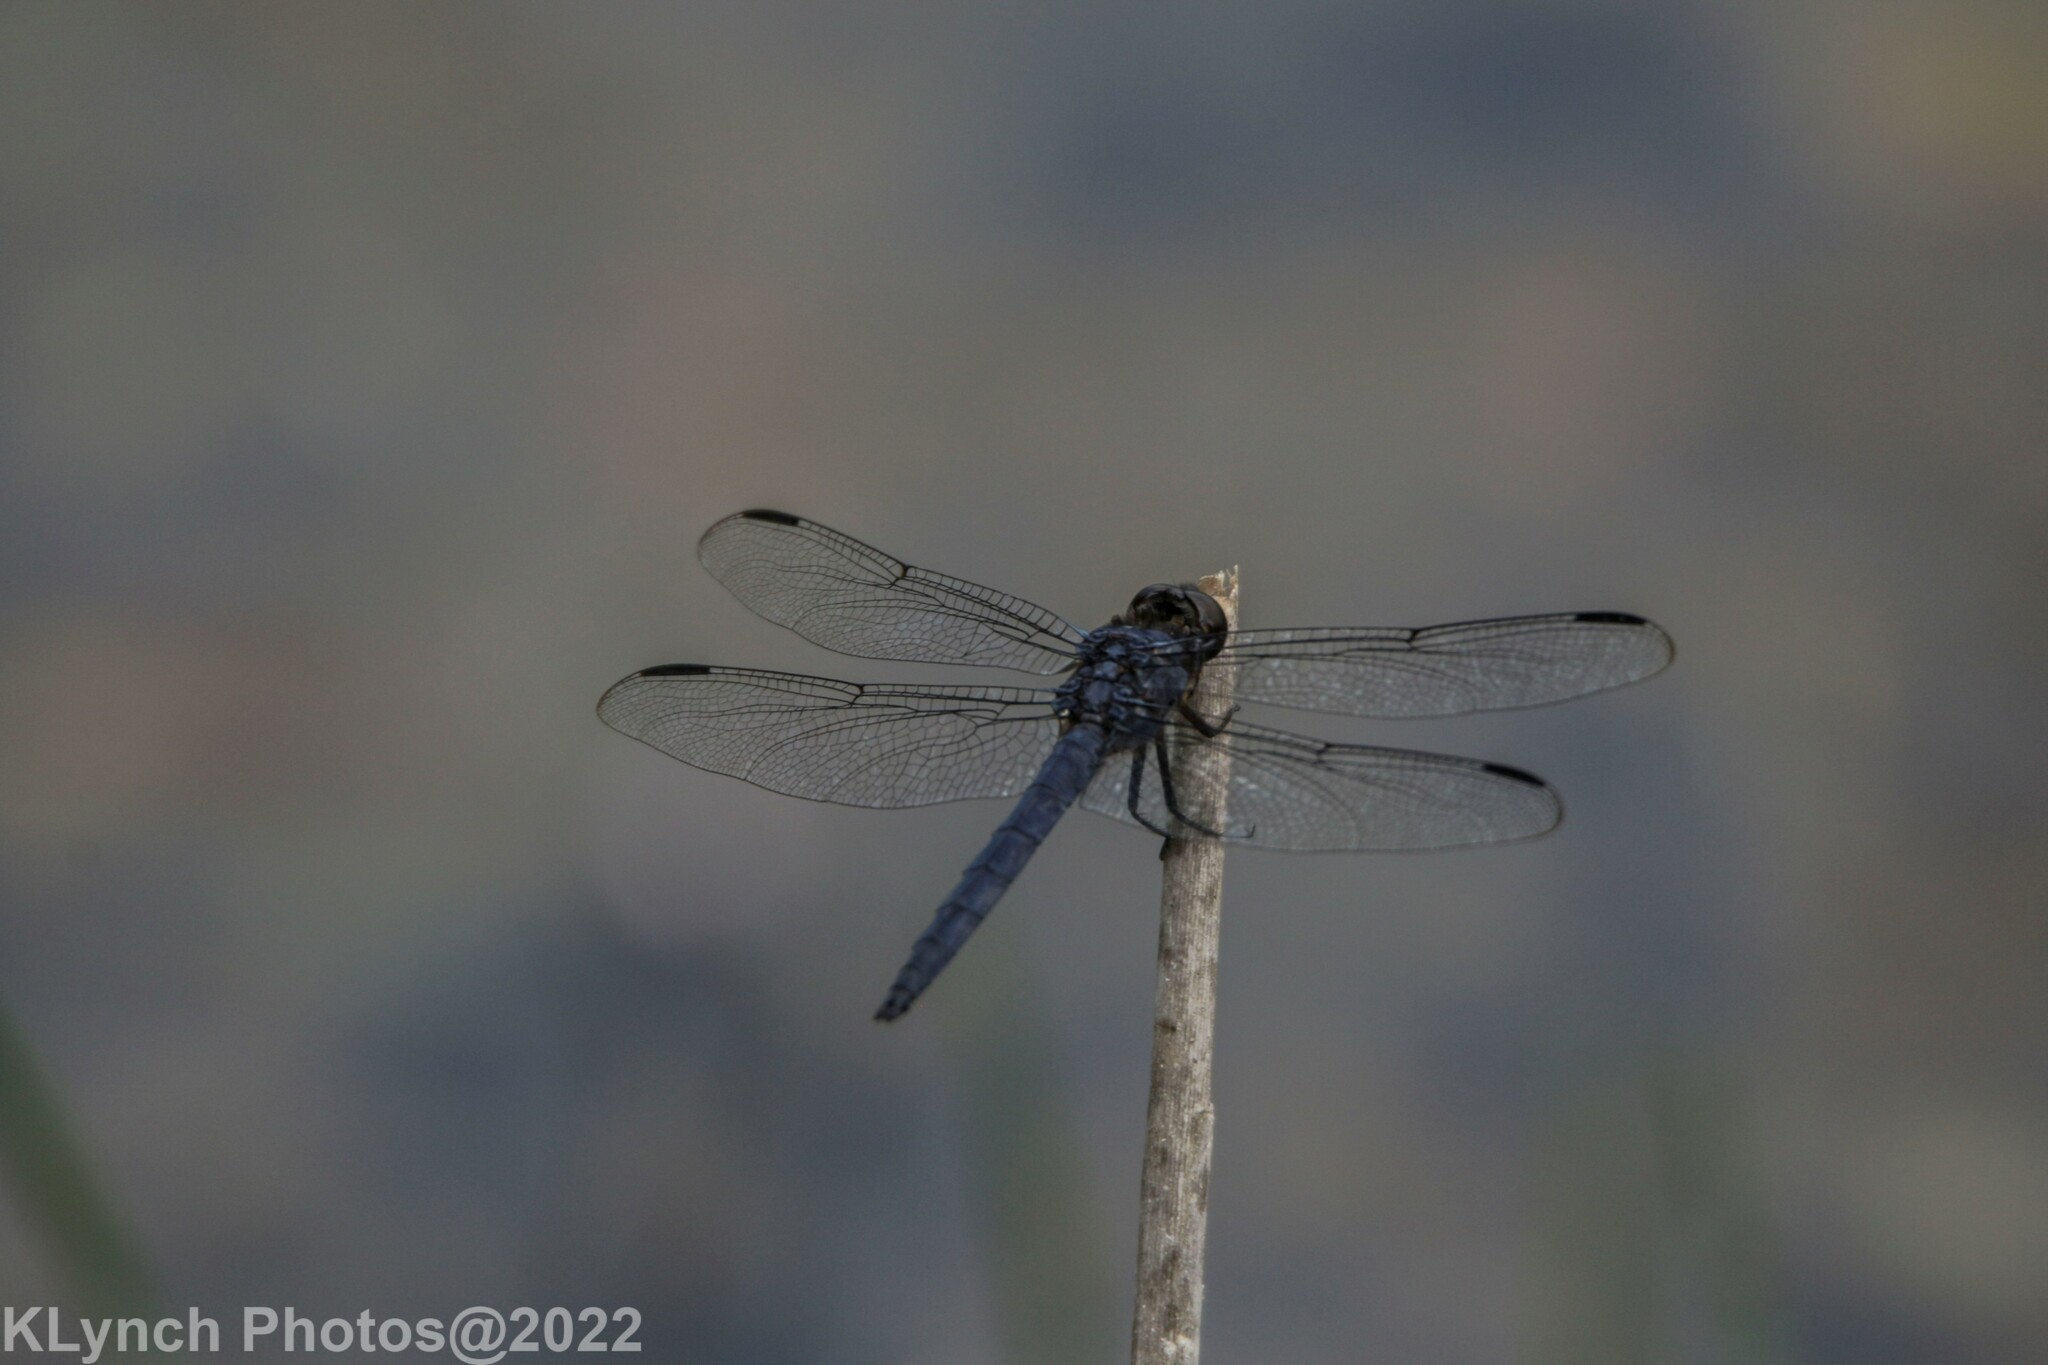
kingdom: Animalia
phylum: Arthropoda
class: Insecta
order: Odonata
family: Libellulidae
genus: Libellula
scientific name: Libellula incesta
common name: Slaty skimmer
